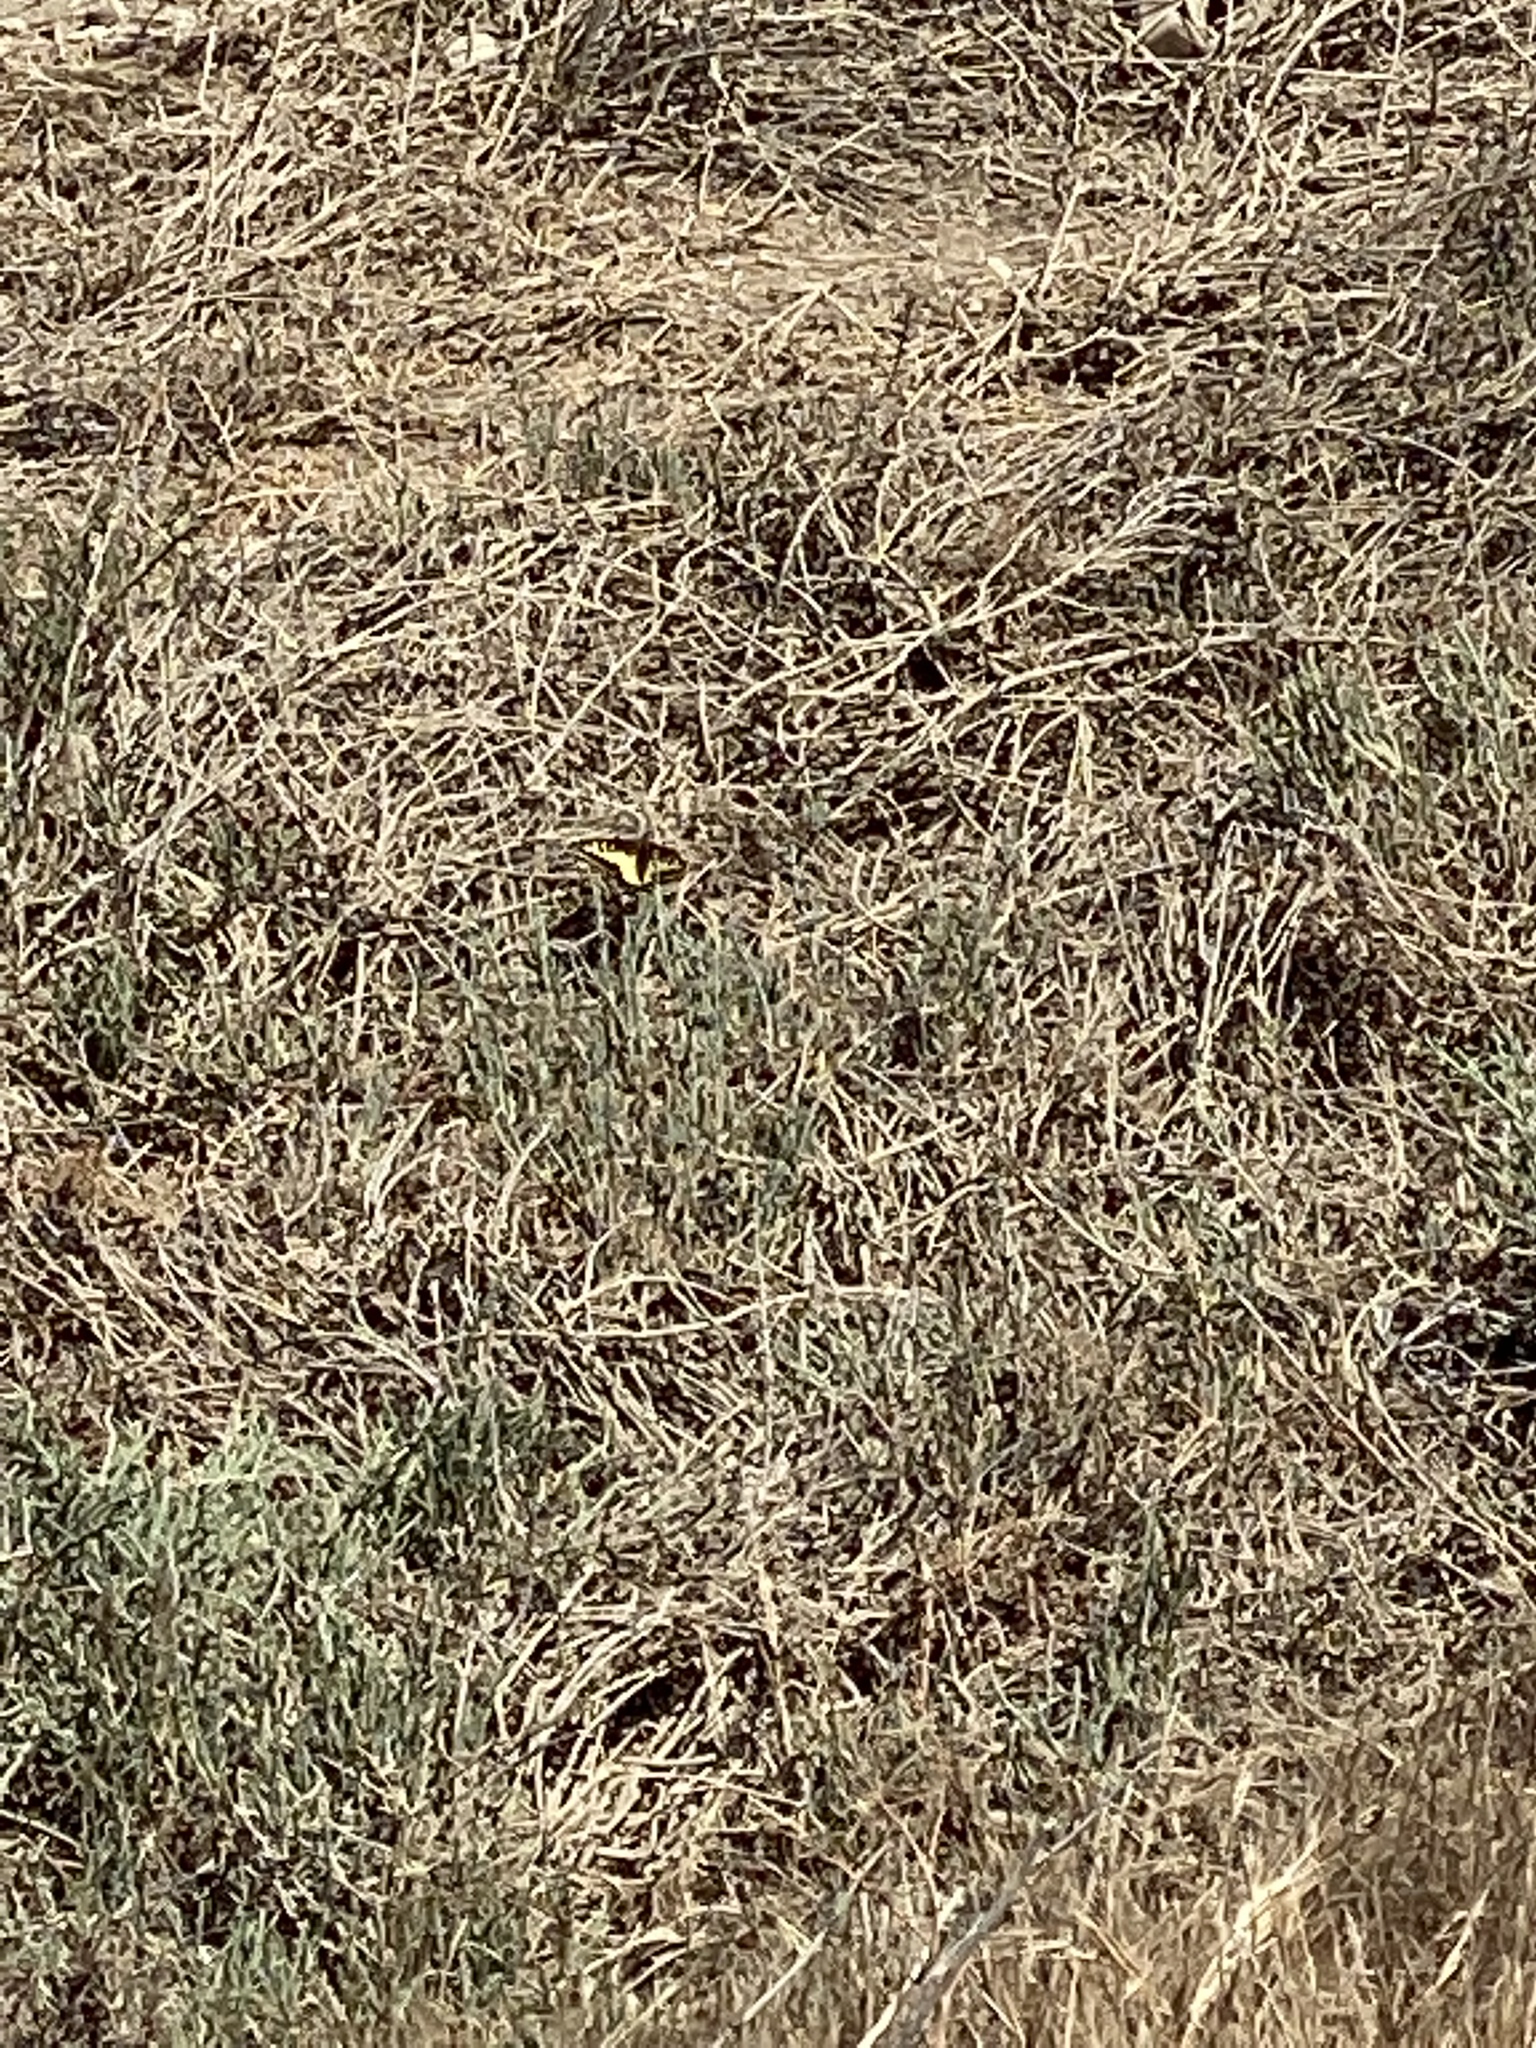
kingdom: Animalia
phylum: Arthropoda
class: Insecta
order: Lepidoptera
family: Papilionidae
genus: Papilio
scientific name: Papilio zelicaon
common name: Anise swallowtail
